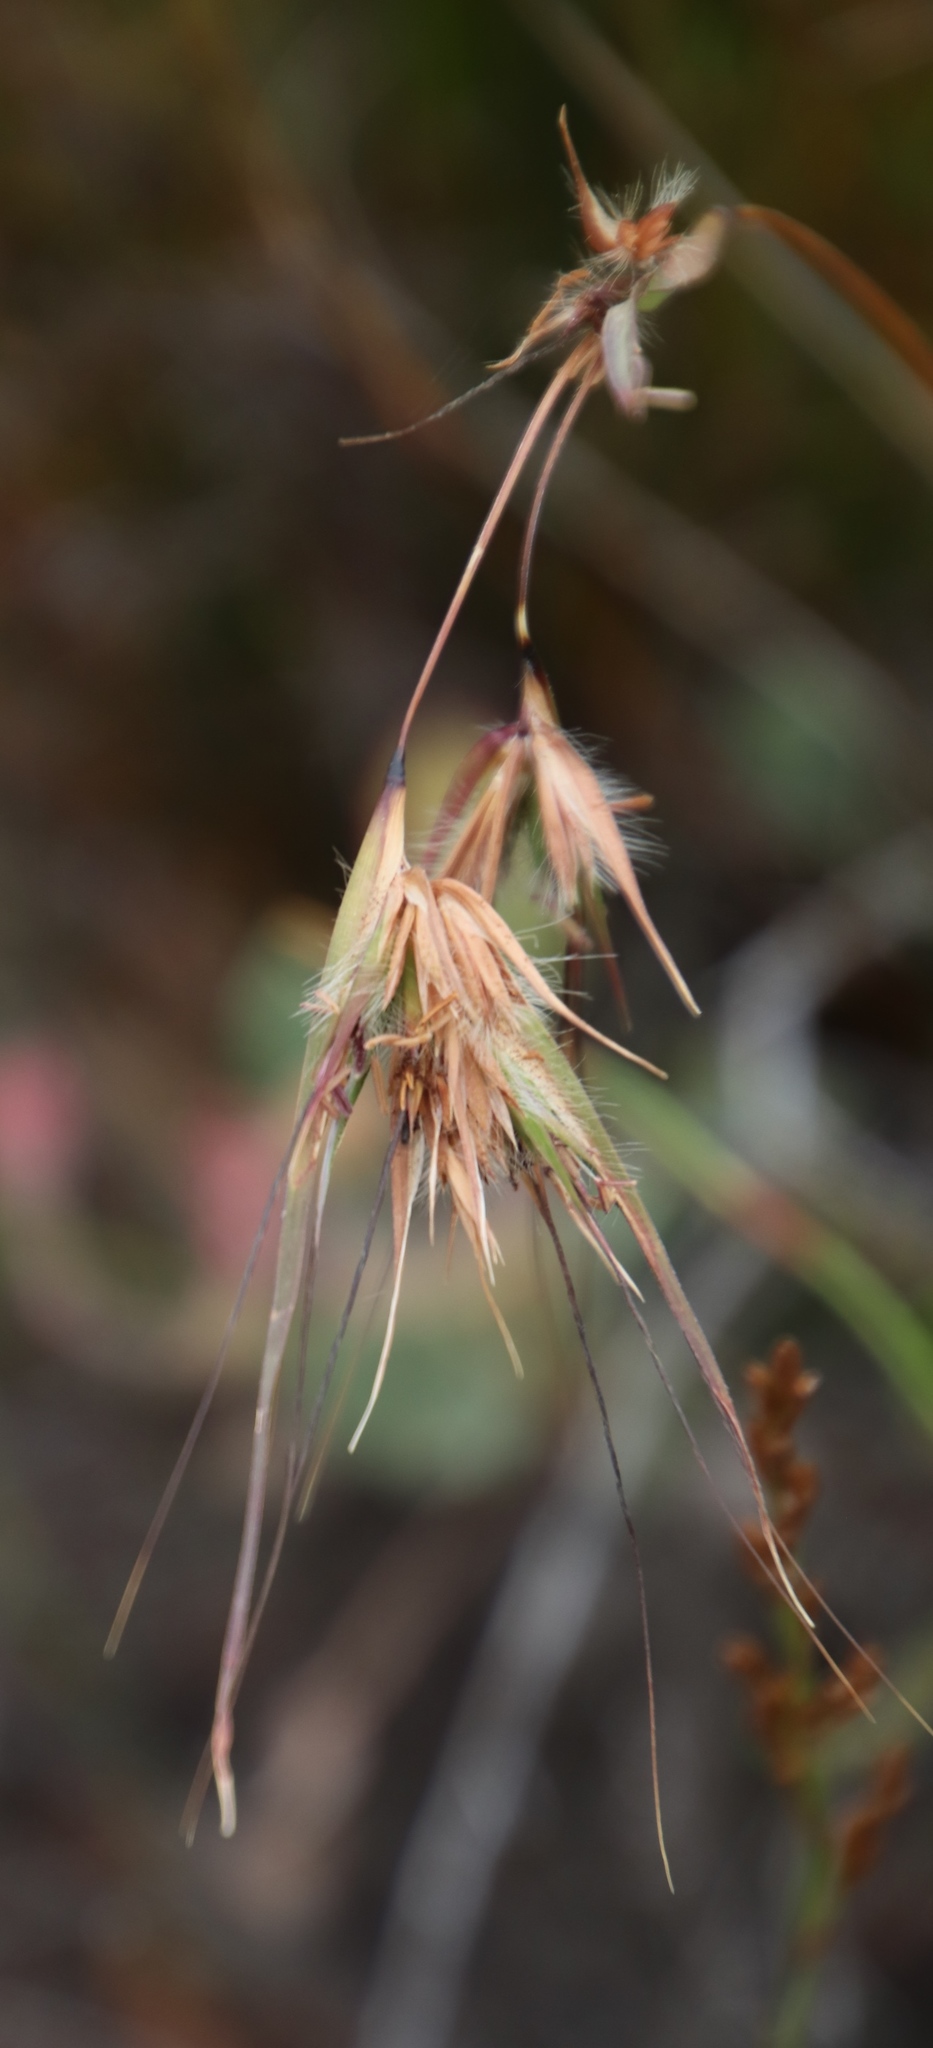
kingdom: Plantae
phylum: Tracheophyta
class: Liliopsida
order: Poales
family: Poaceae
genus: Themeda
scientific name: Themeda triandra
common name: Kangaroo grass
